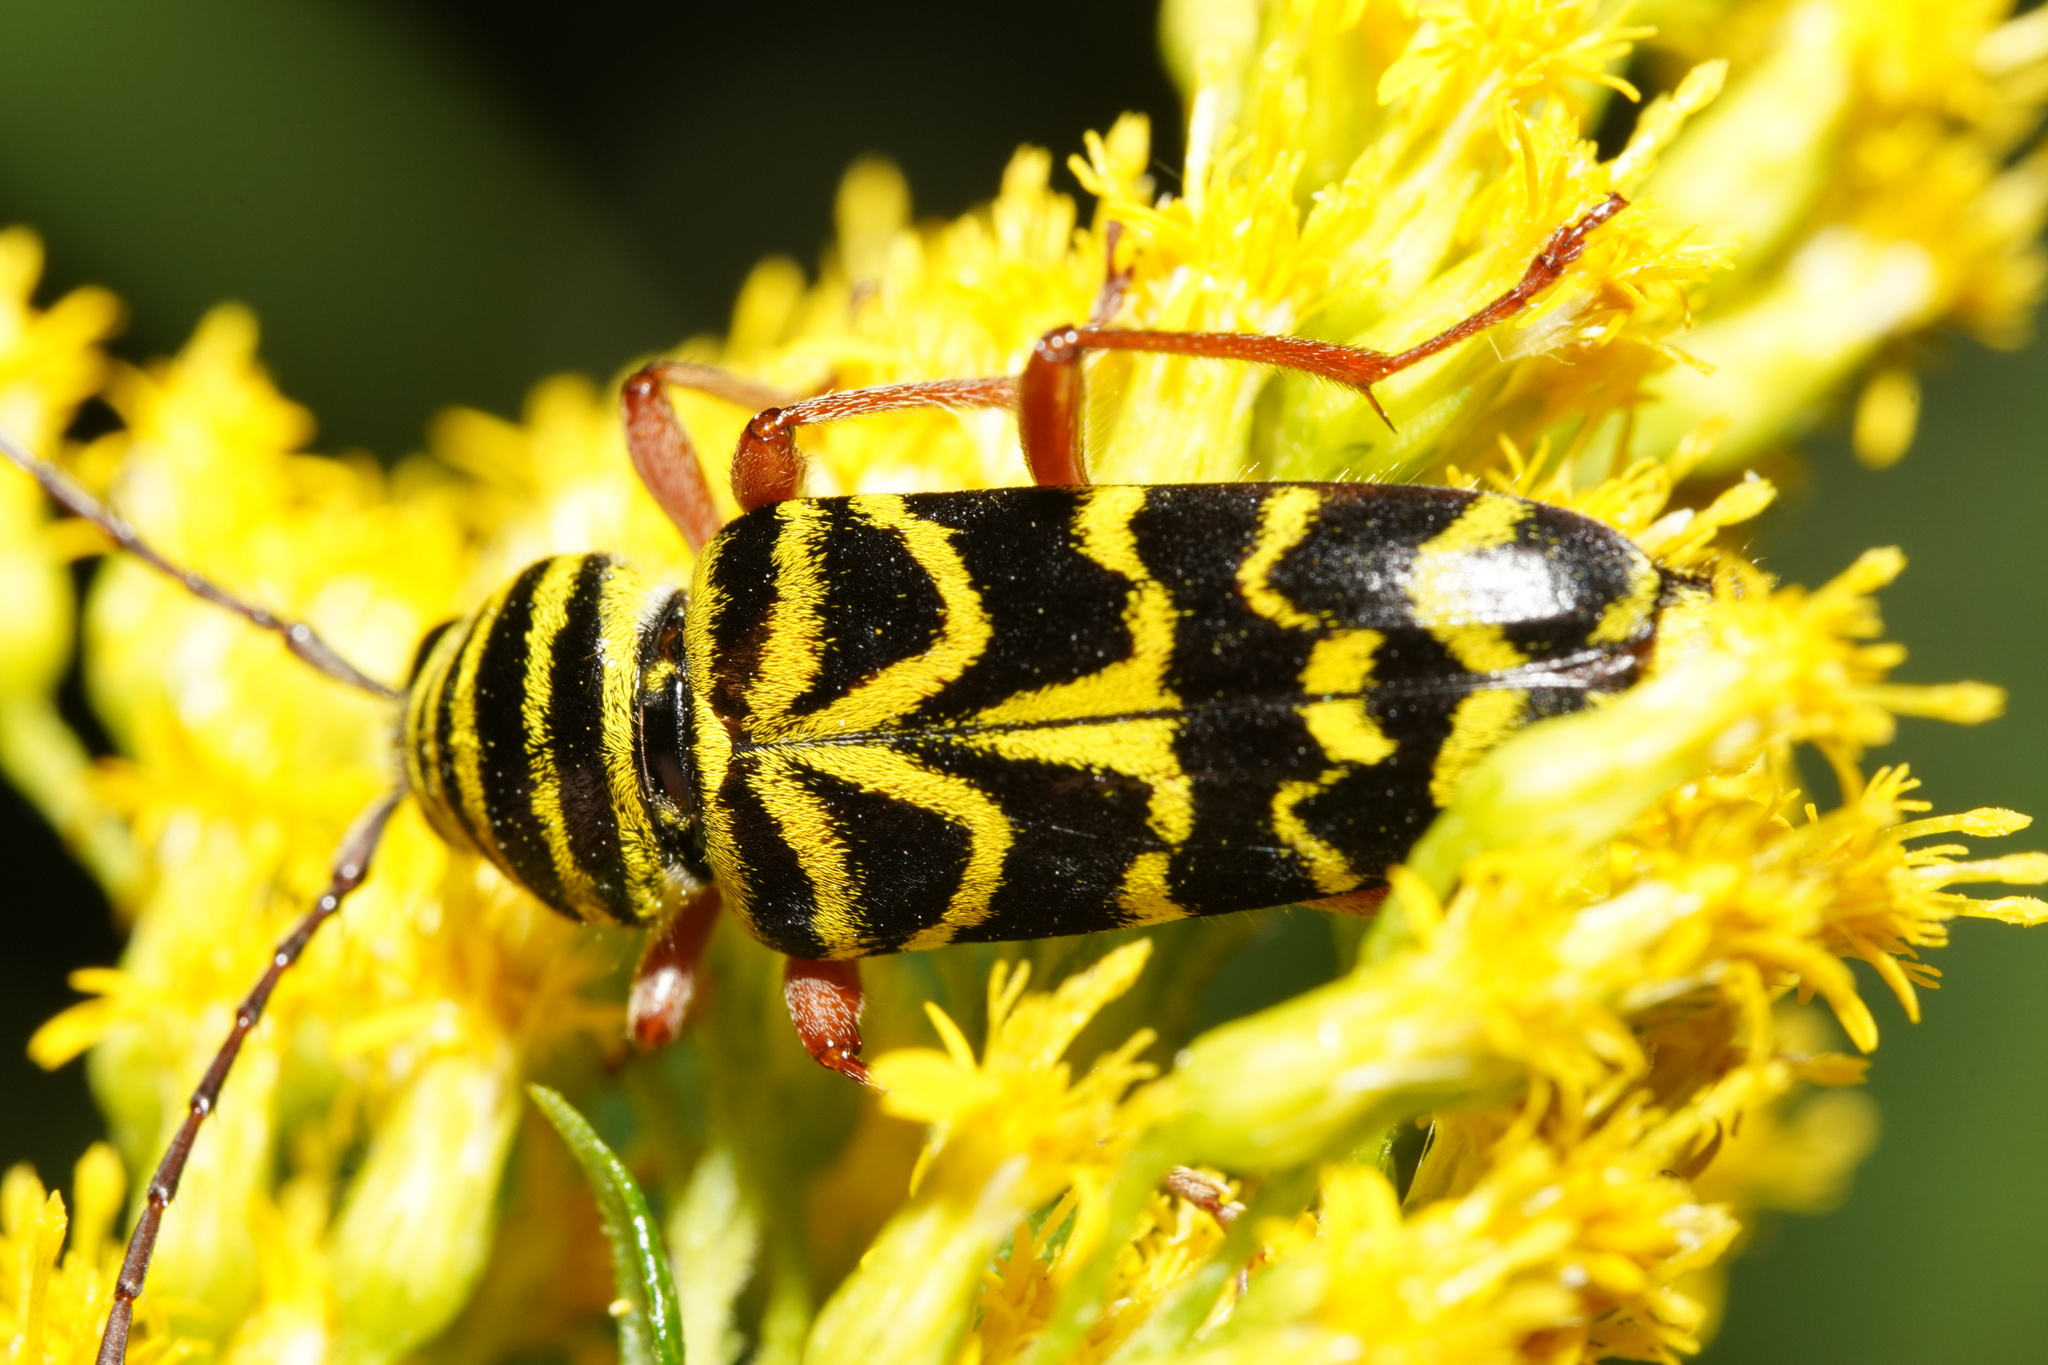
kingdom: Animalia
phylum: Arthropoda
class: Insecta
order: Coleoptera
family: Cerambycidae
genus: Megacyllene
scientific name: Megacyllene robiniae
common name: Locust borer
